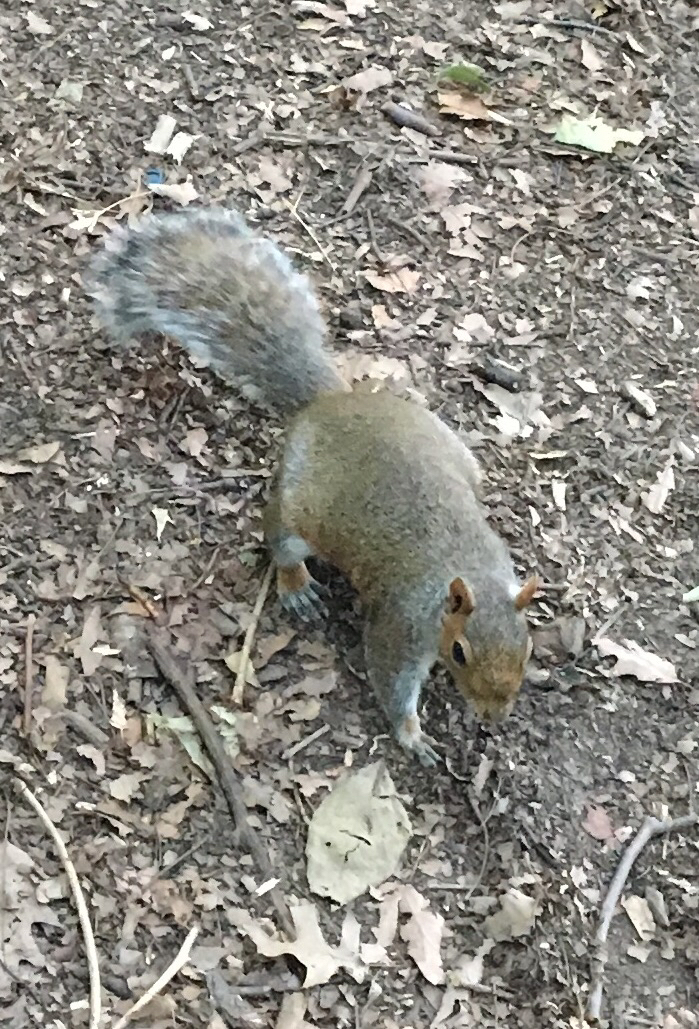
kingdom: Animalia
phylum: Chordata
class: Mammalia
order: Rodentia
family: Sciuridae
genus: Sciurus
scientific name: Sciurus carolinensis
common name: Eastern gray squirrel
